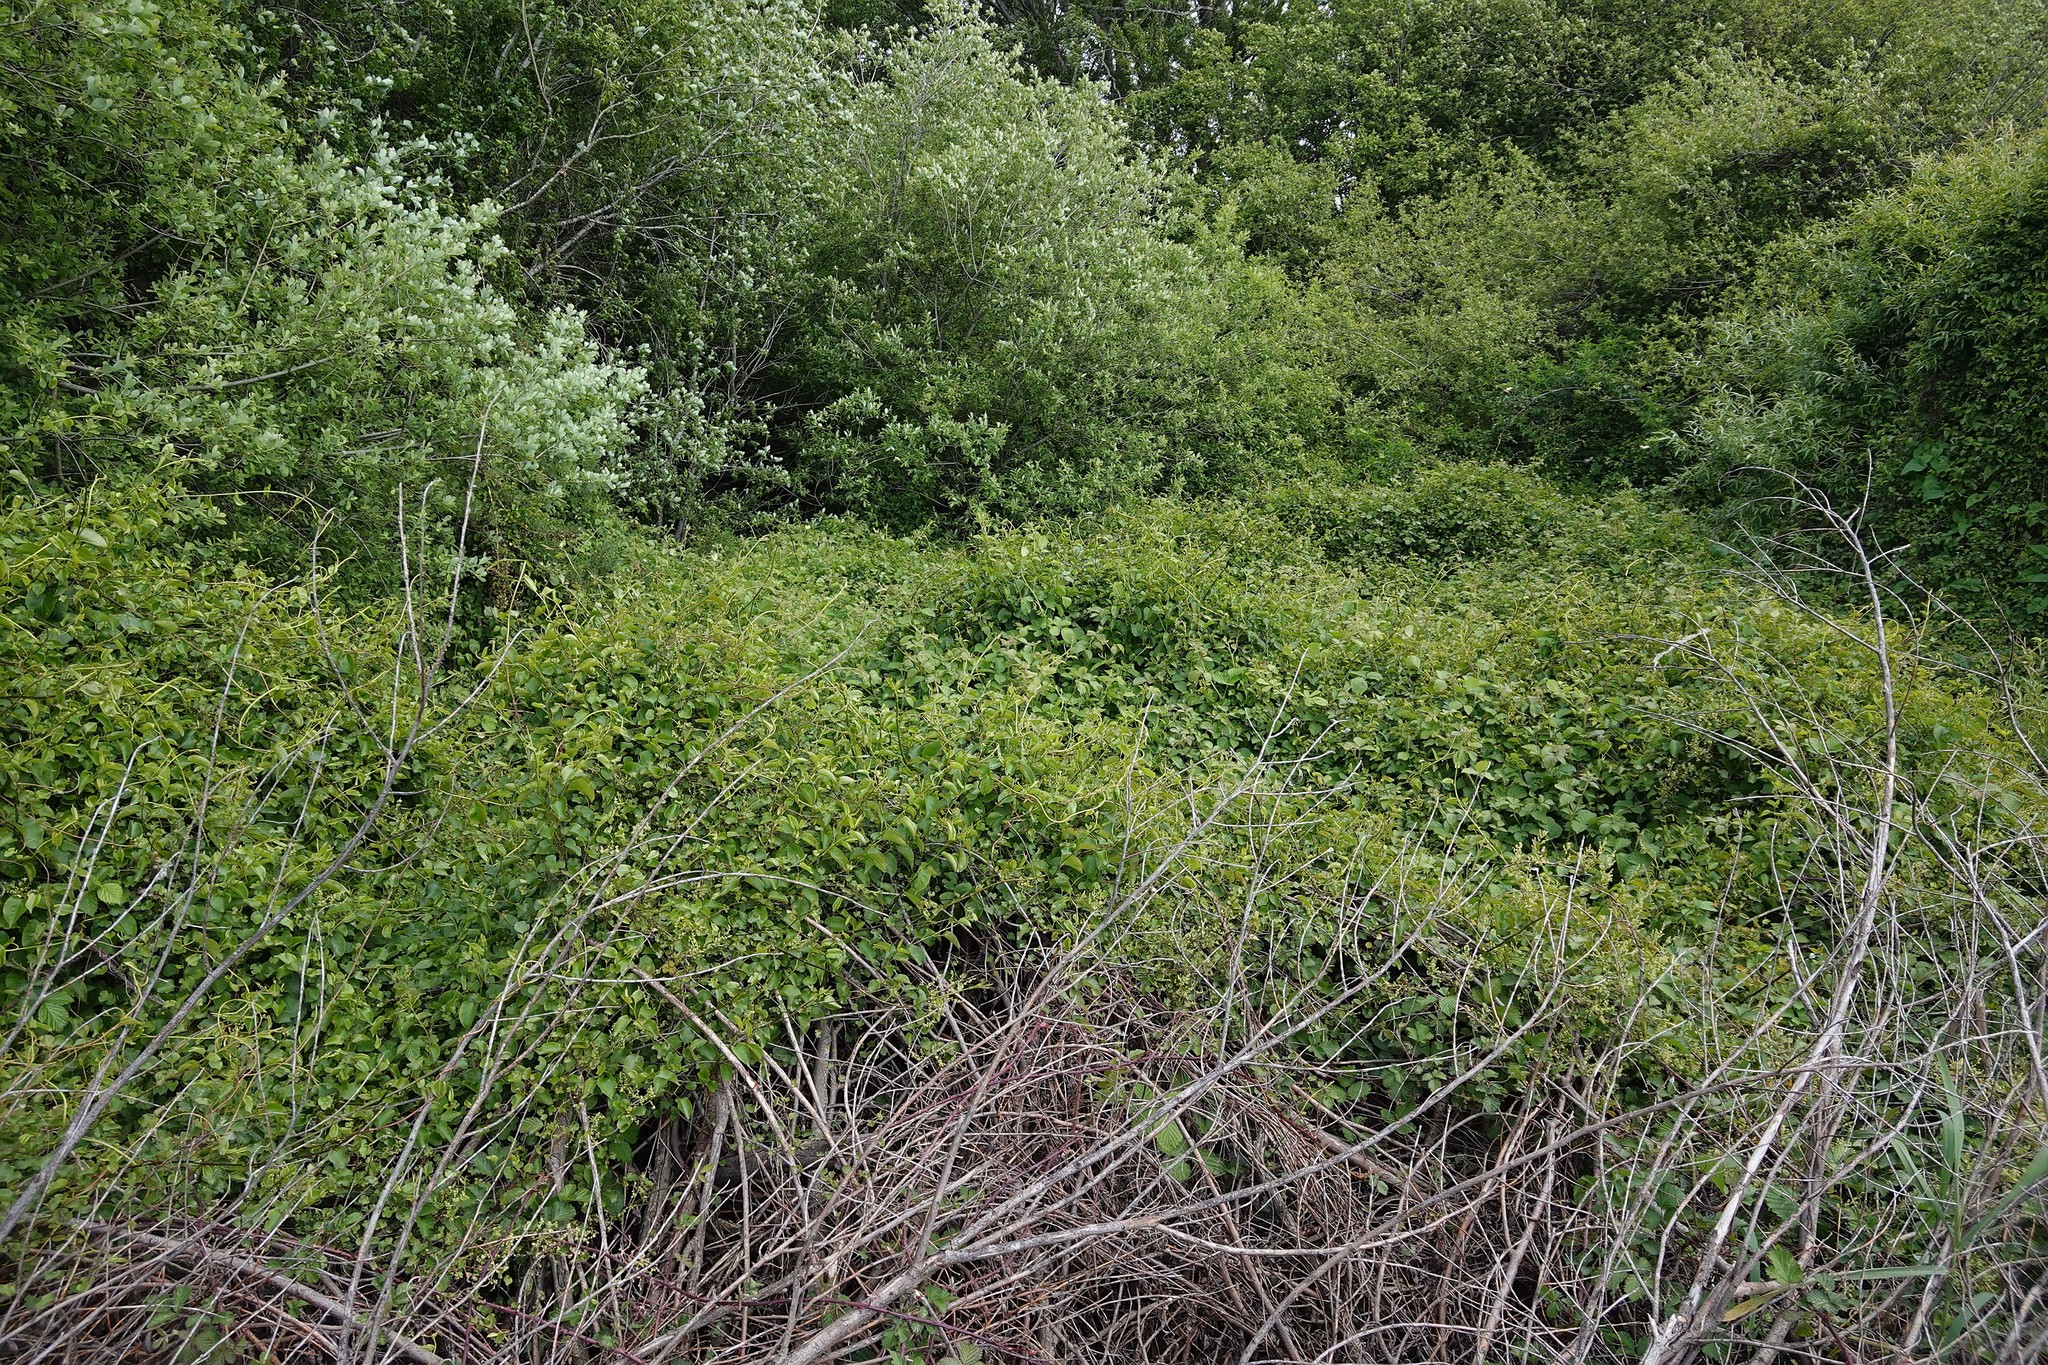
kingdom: Plantae
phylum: Tracheophyta
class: Magnoliopsida
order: Caryophyllales
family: Polygonaceae
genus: Muehlenbeckia
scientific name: Muehlenbeckia australis
